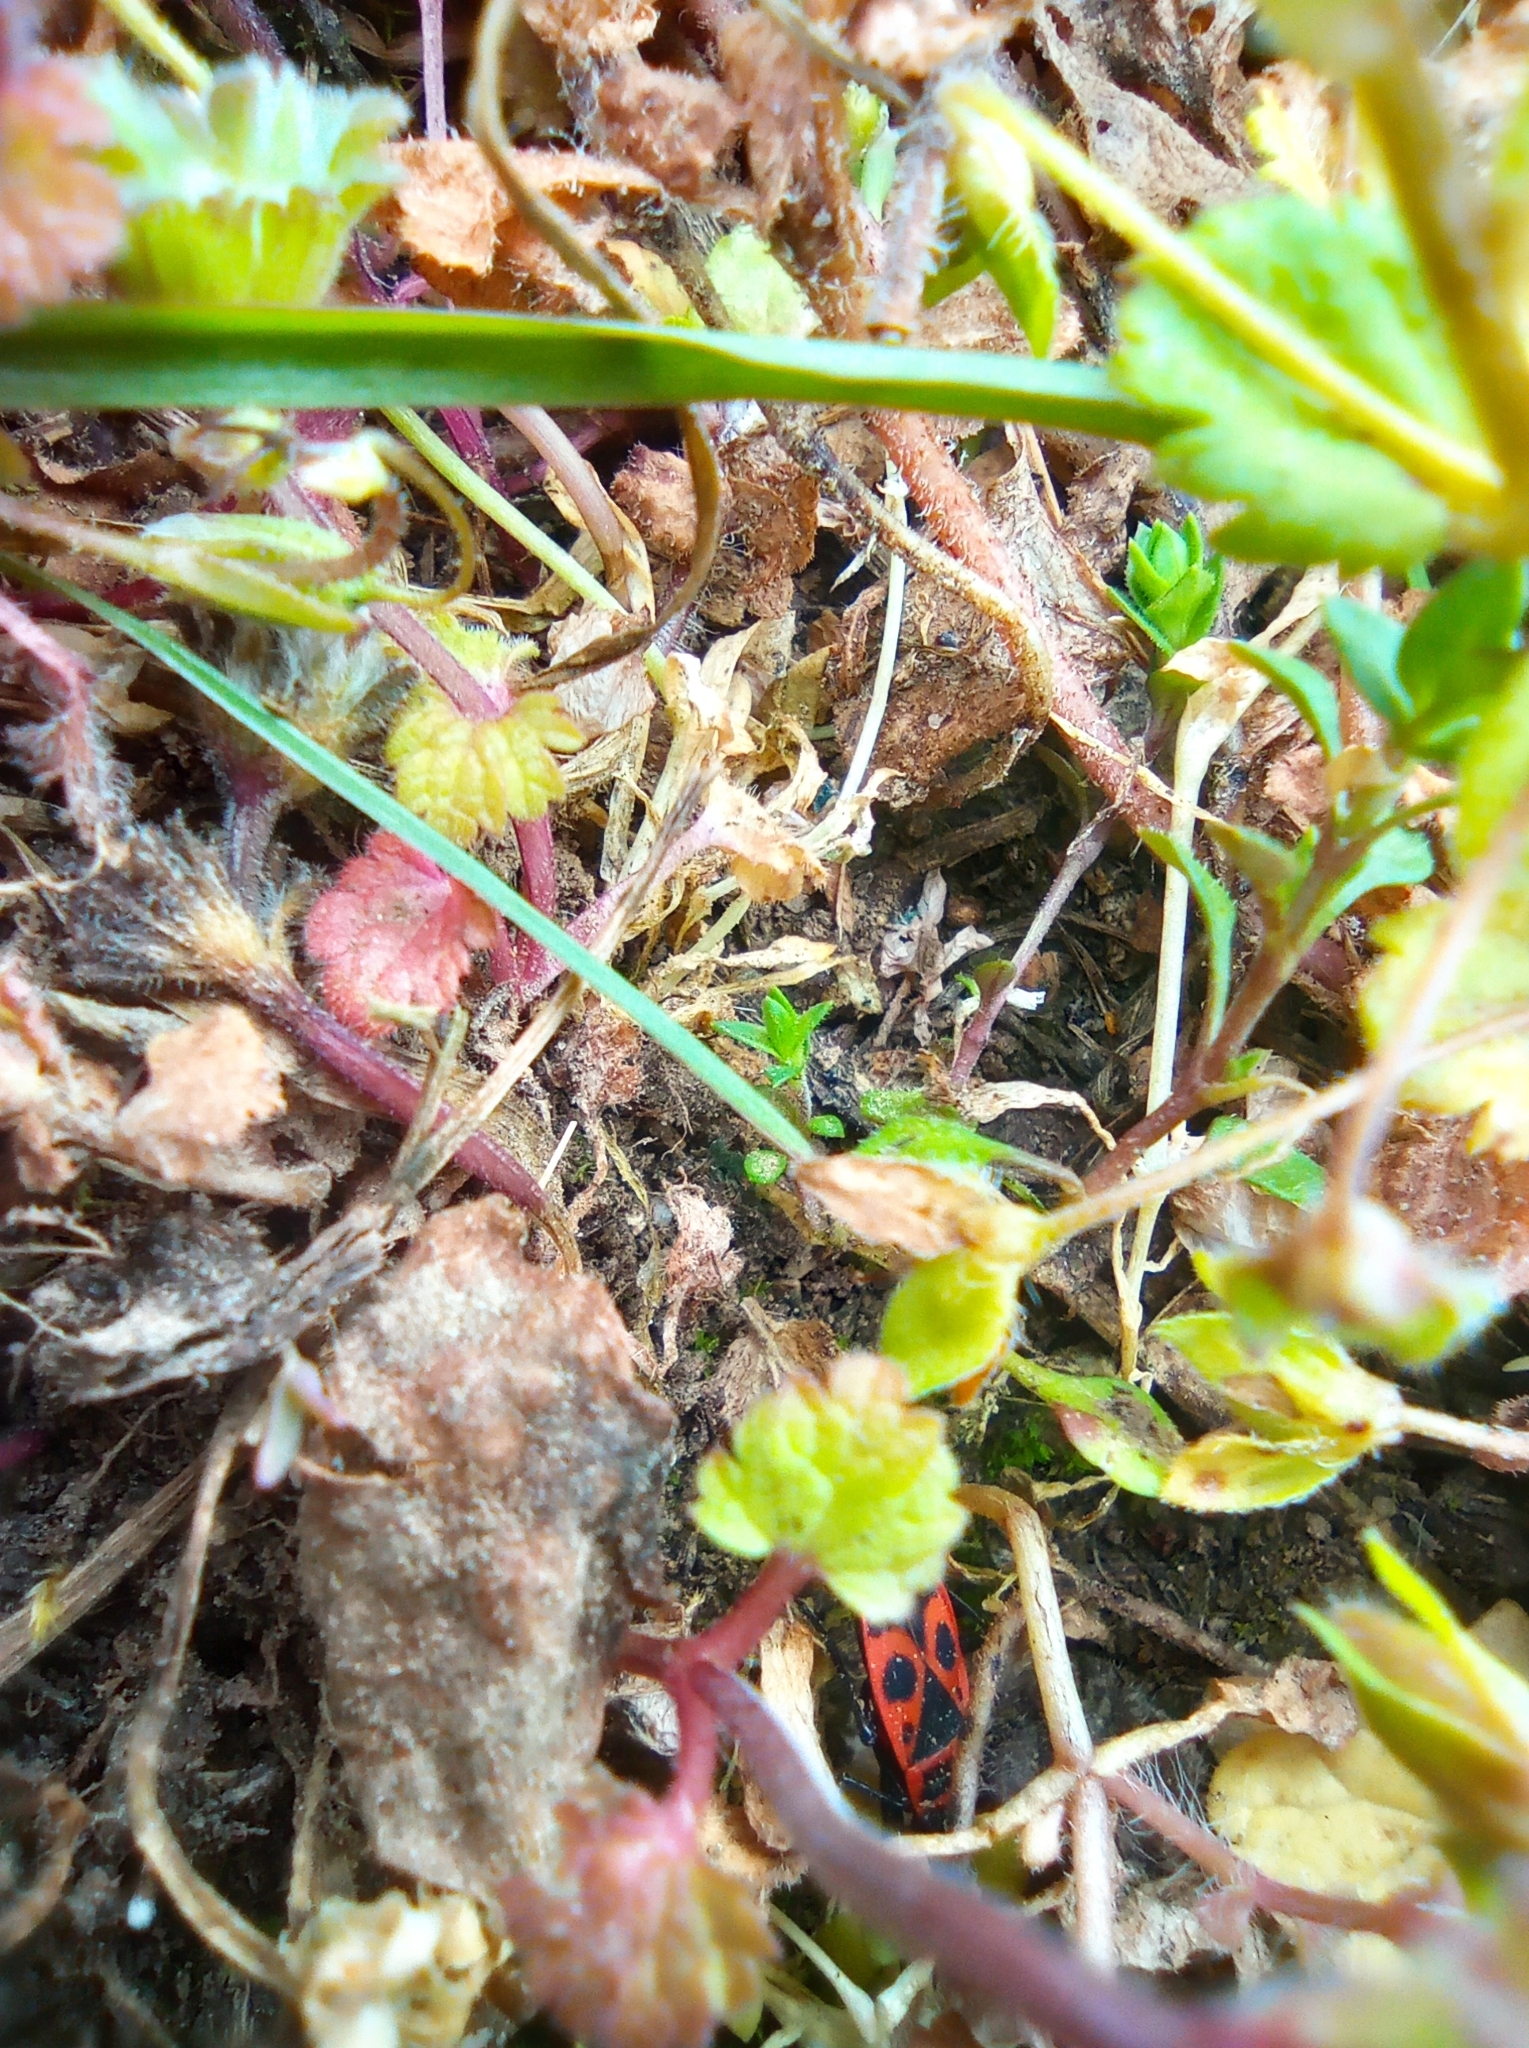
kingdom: Animalia
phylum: Arthropoda
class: Insecta
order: Hemiptera
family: Pyrrhocoridae
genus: Pyrrhocoris
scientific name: Pyrrhocoris apterus
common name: Firebug
